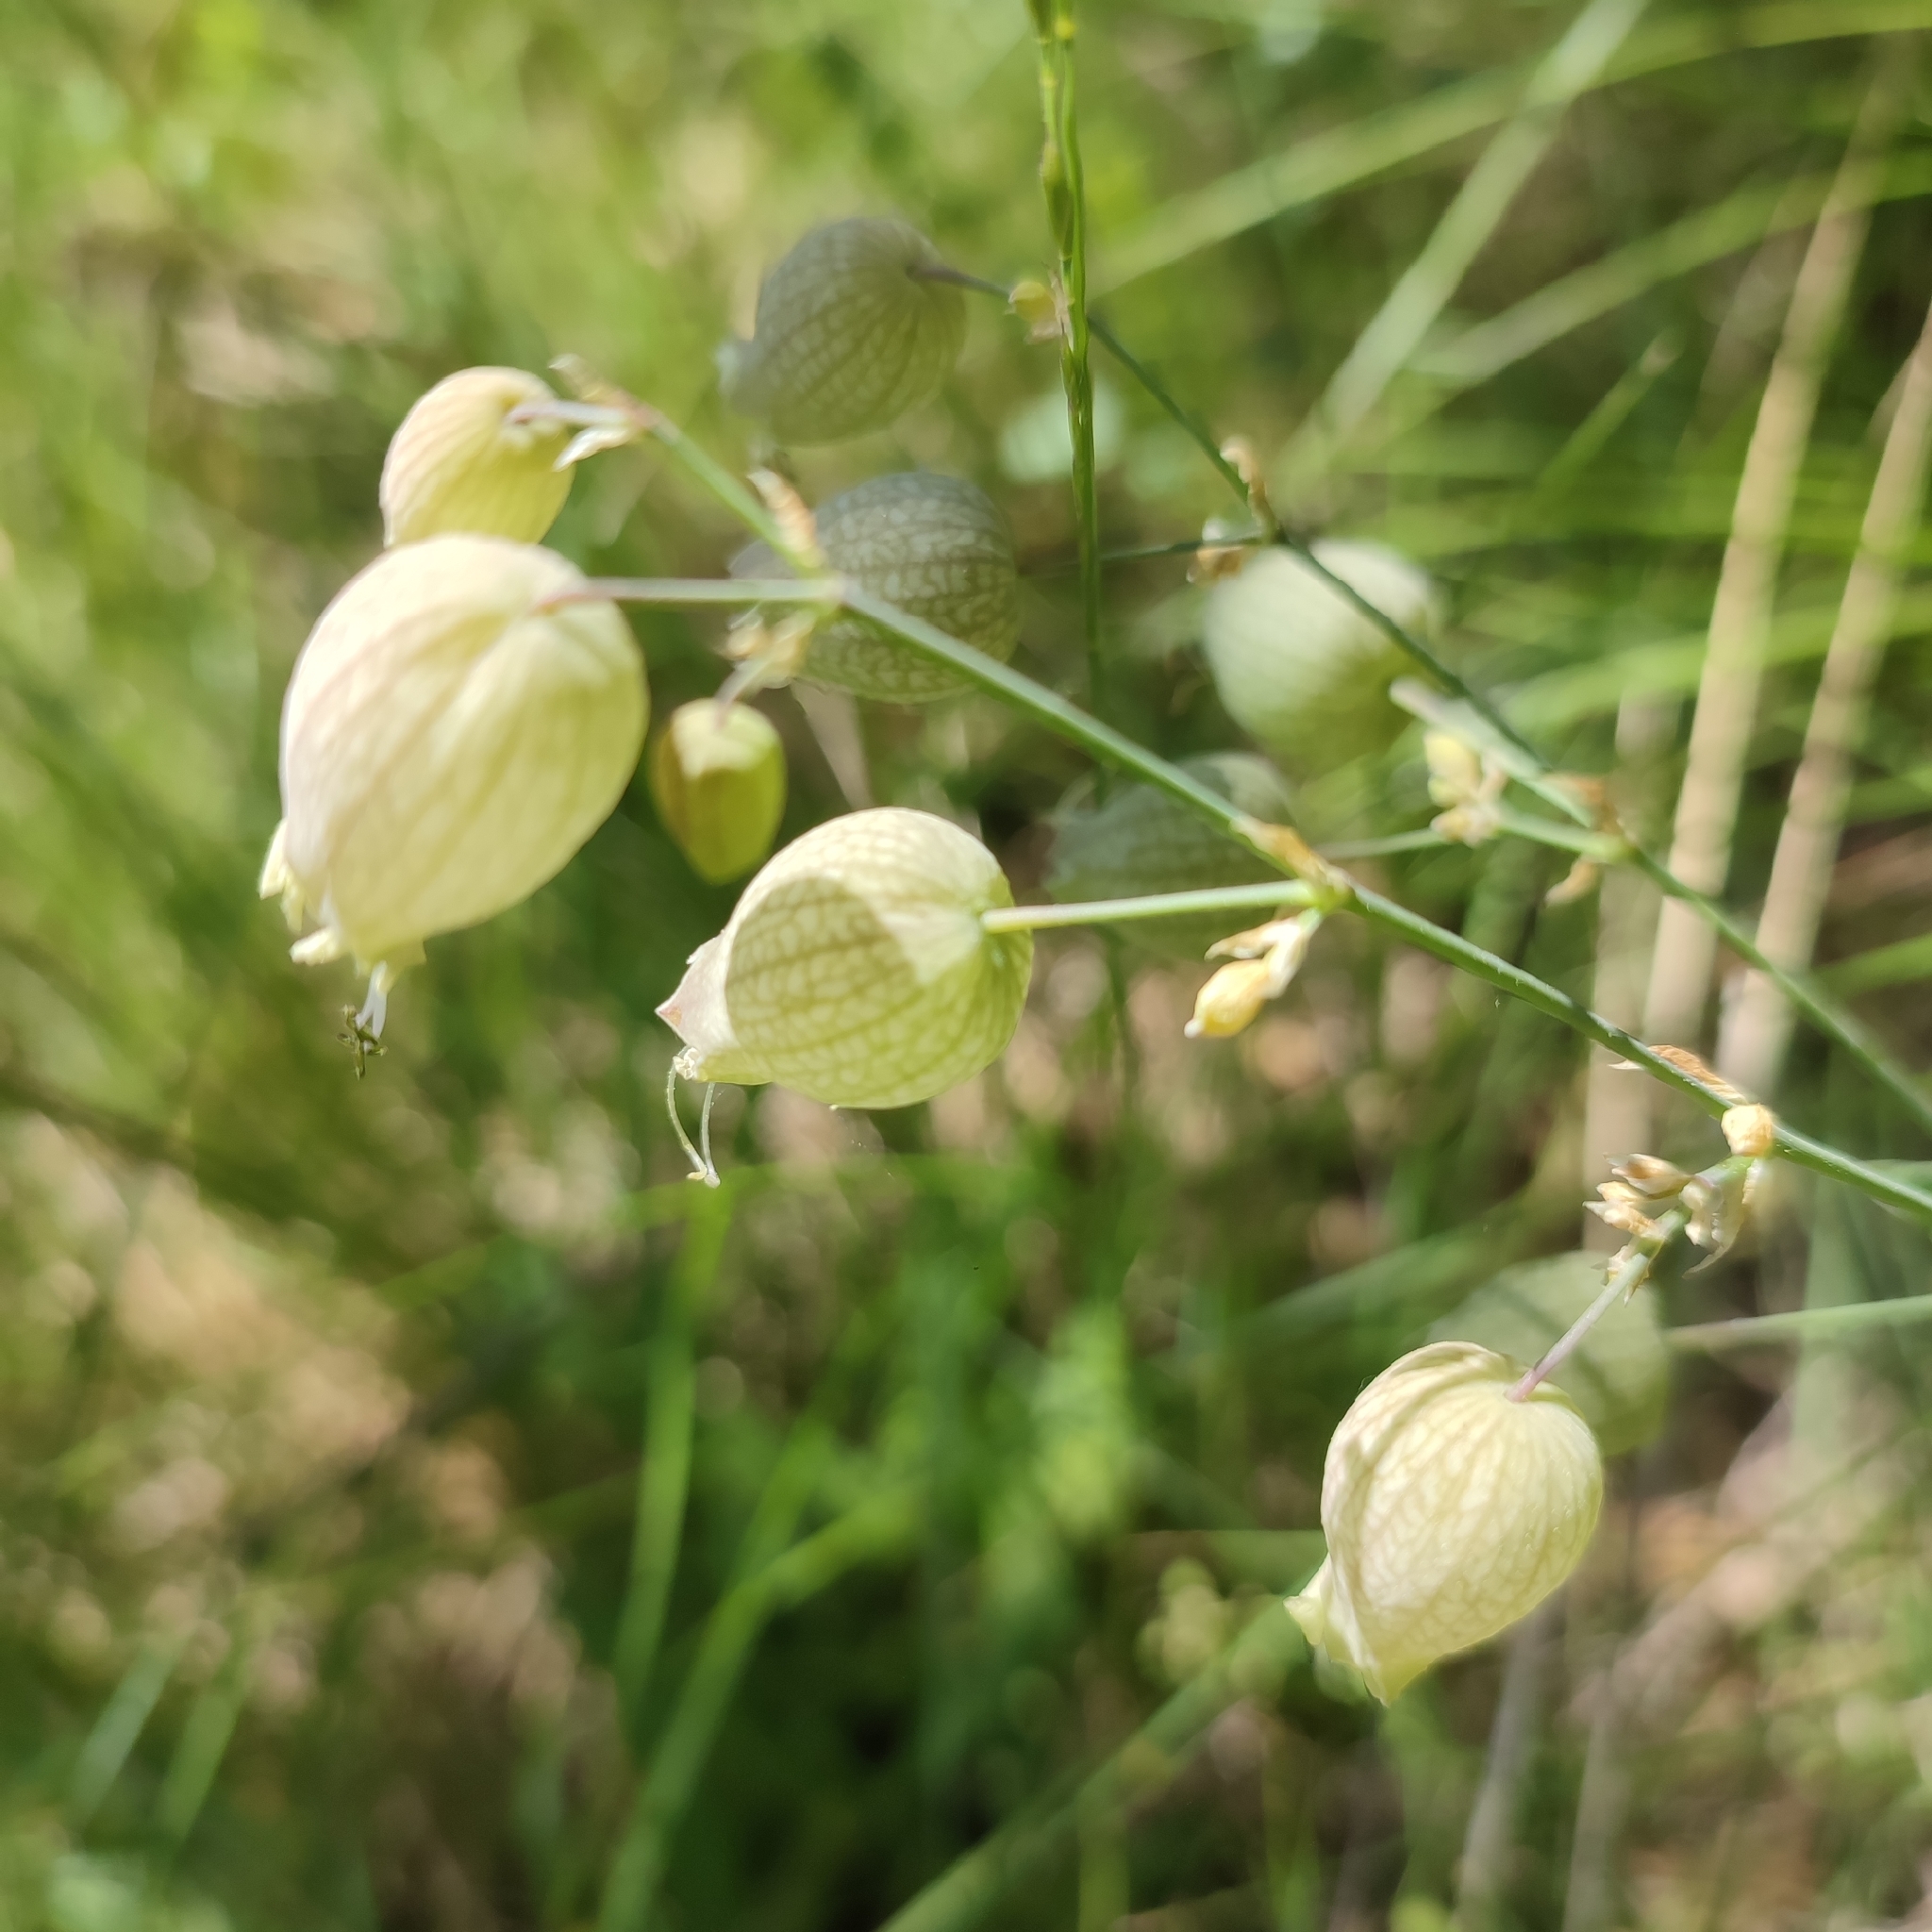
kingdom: Plantae
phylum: Tracheophyta
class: Magnoliopsida
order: Caryophyllales
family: Caryophyllaceae
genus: Silene
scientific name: Silene vulgaris
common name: Bladder campion
